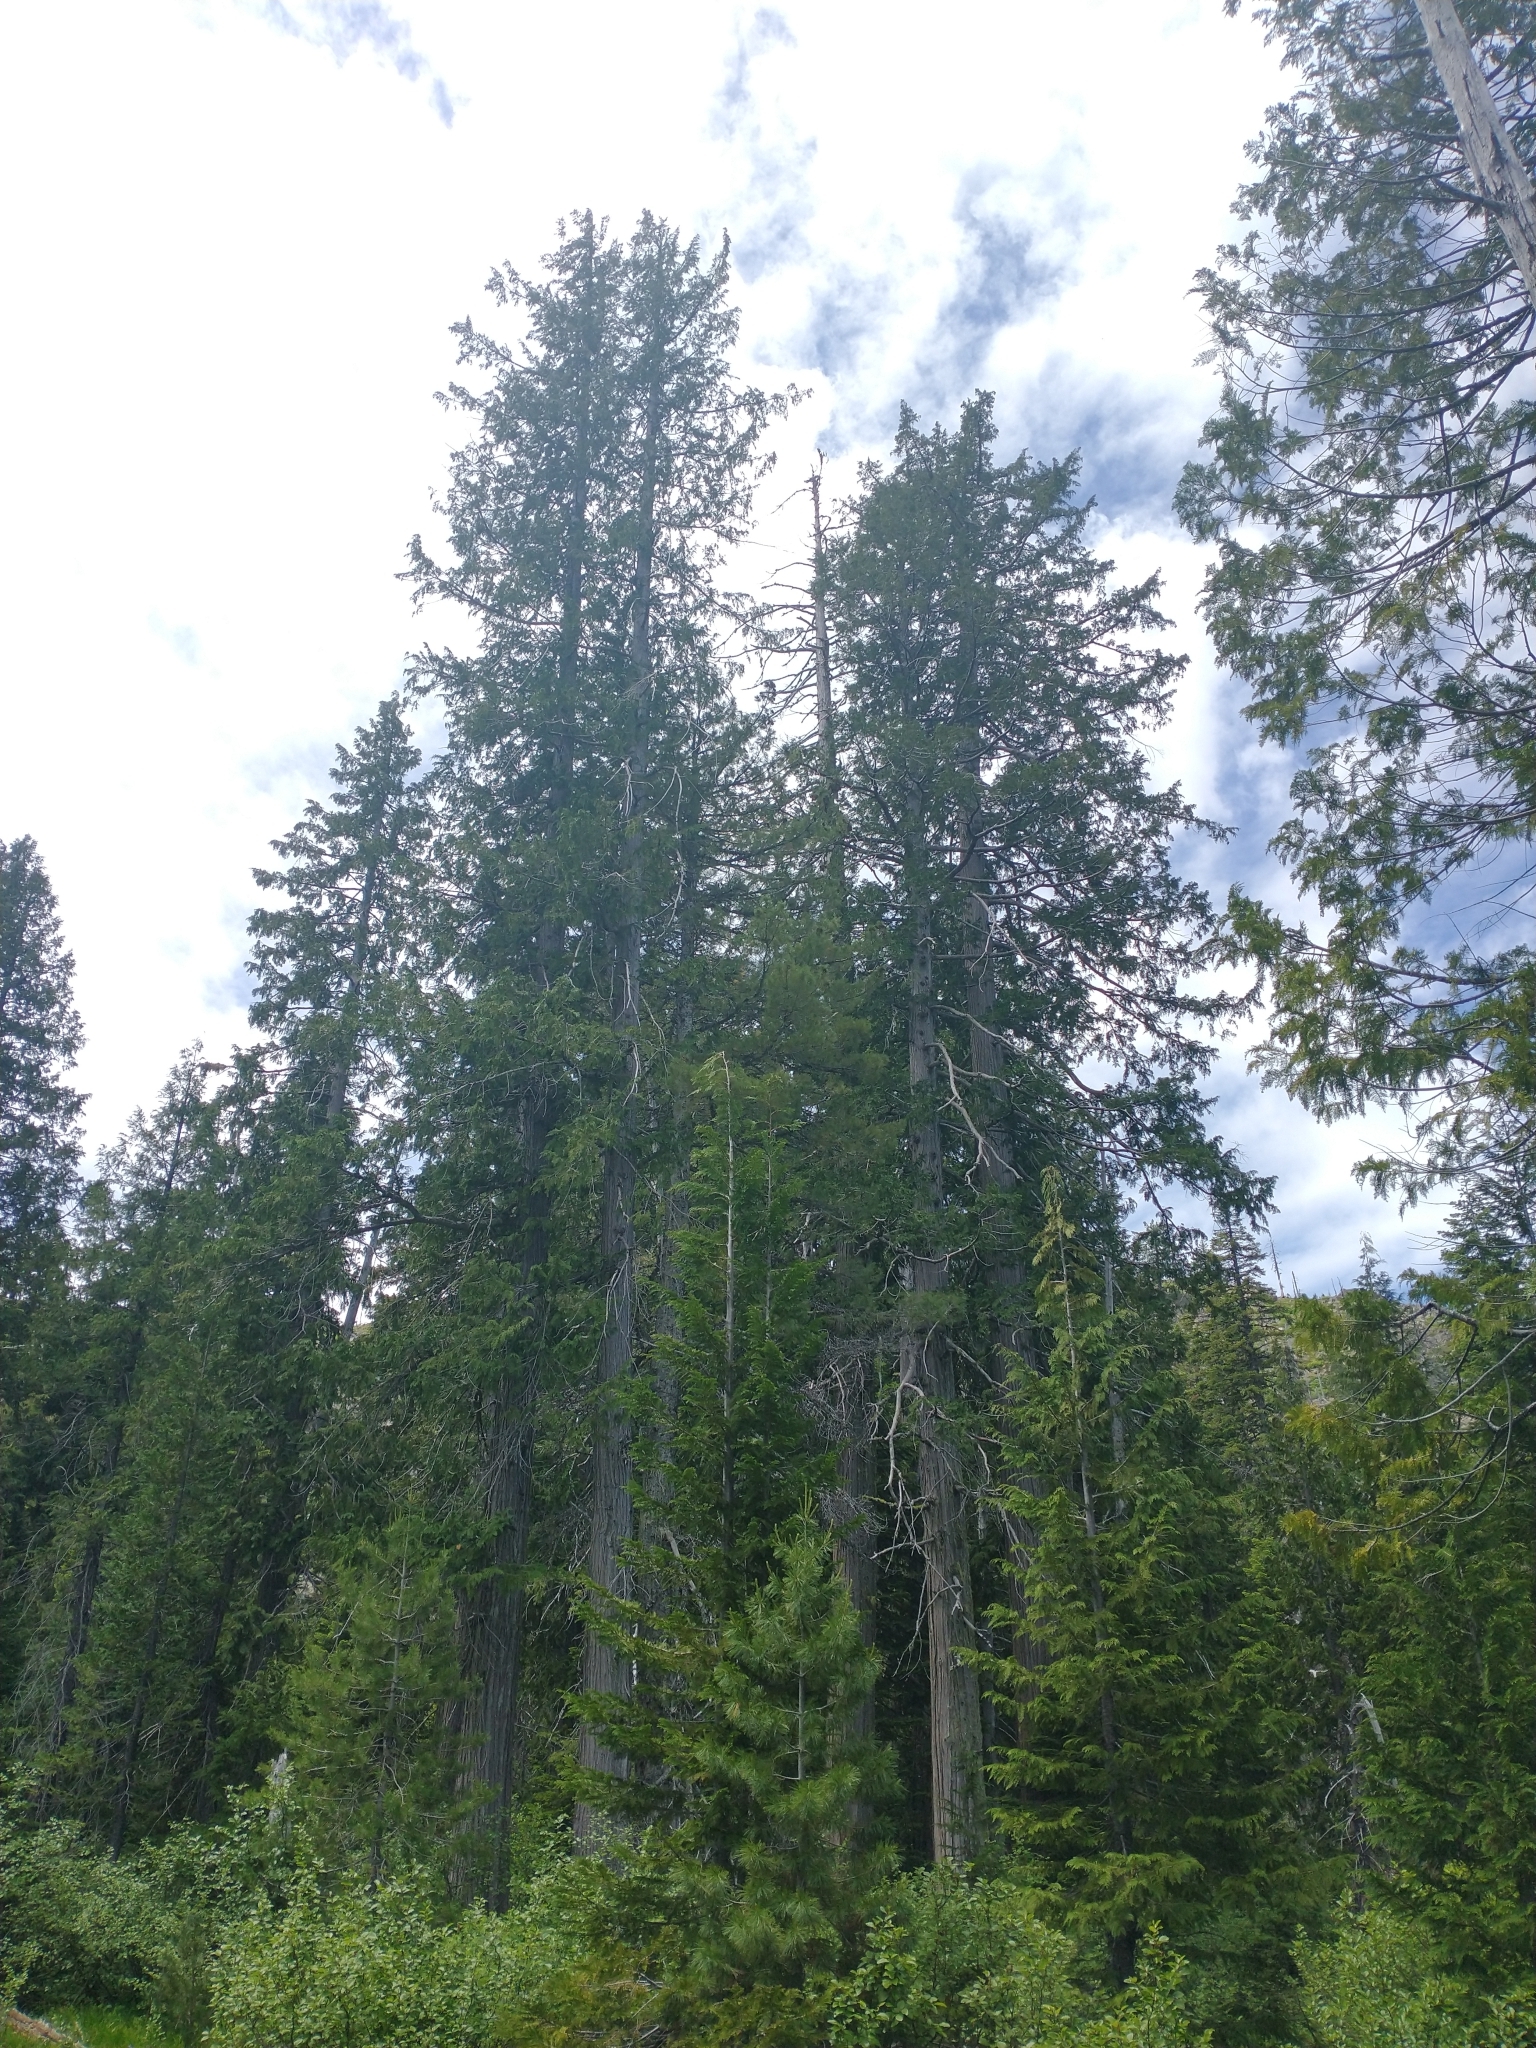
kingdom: Plantae
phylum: Tracheophyta
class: Pinopsida
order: Pinales
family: Cupressaceae
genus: Chamaecyparis
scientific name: Chamaecyparis lawsoniana
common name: Lawson's cypress
